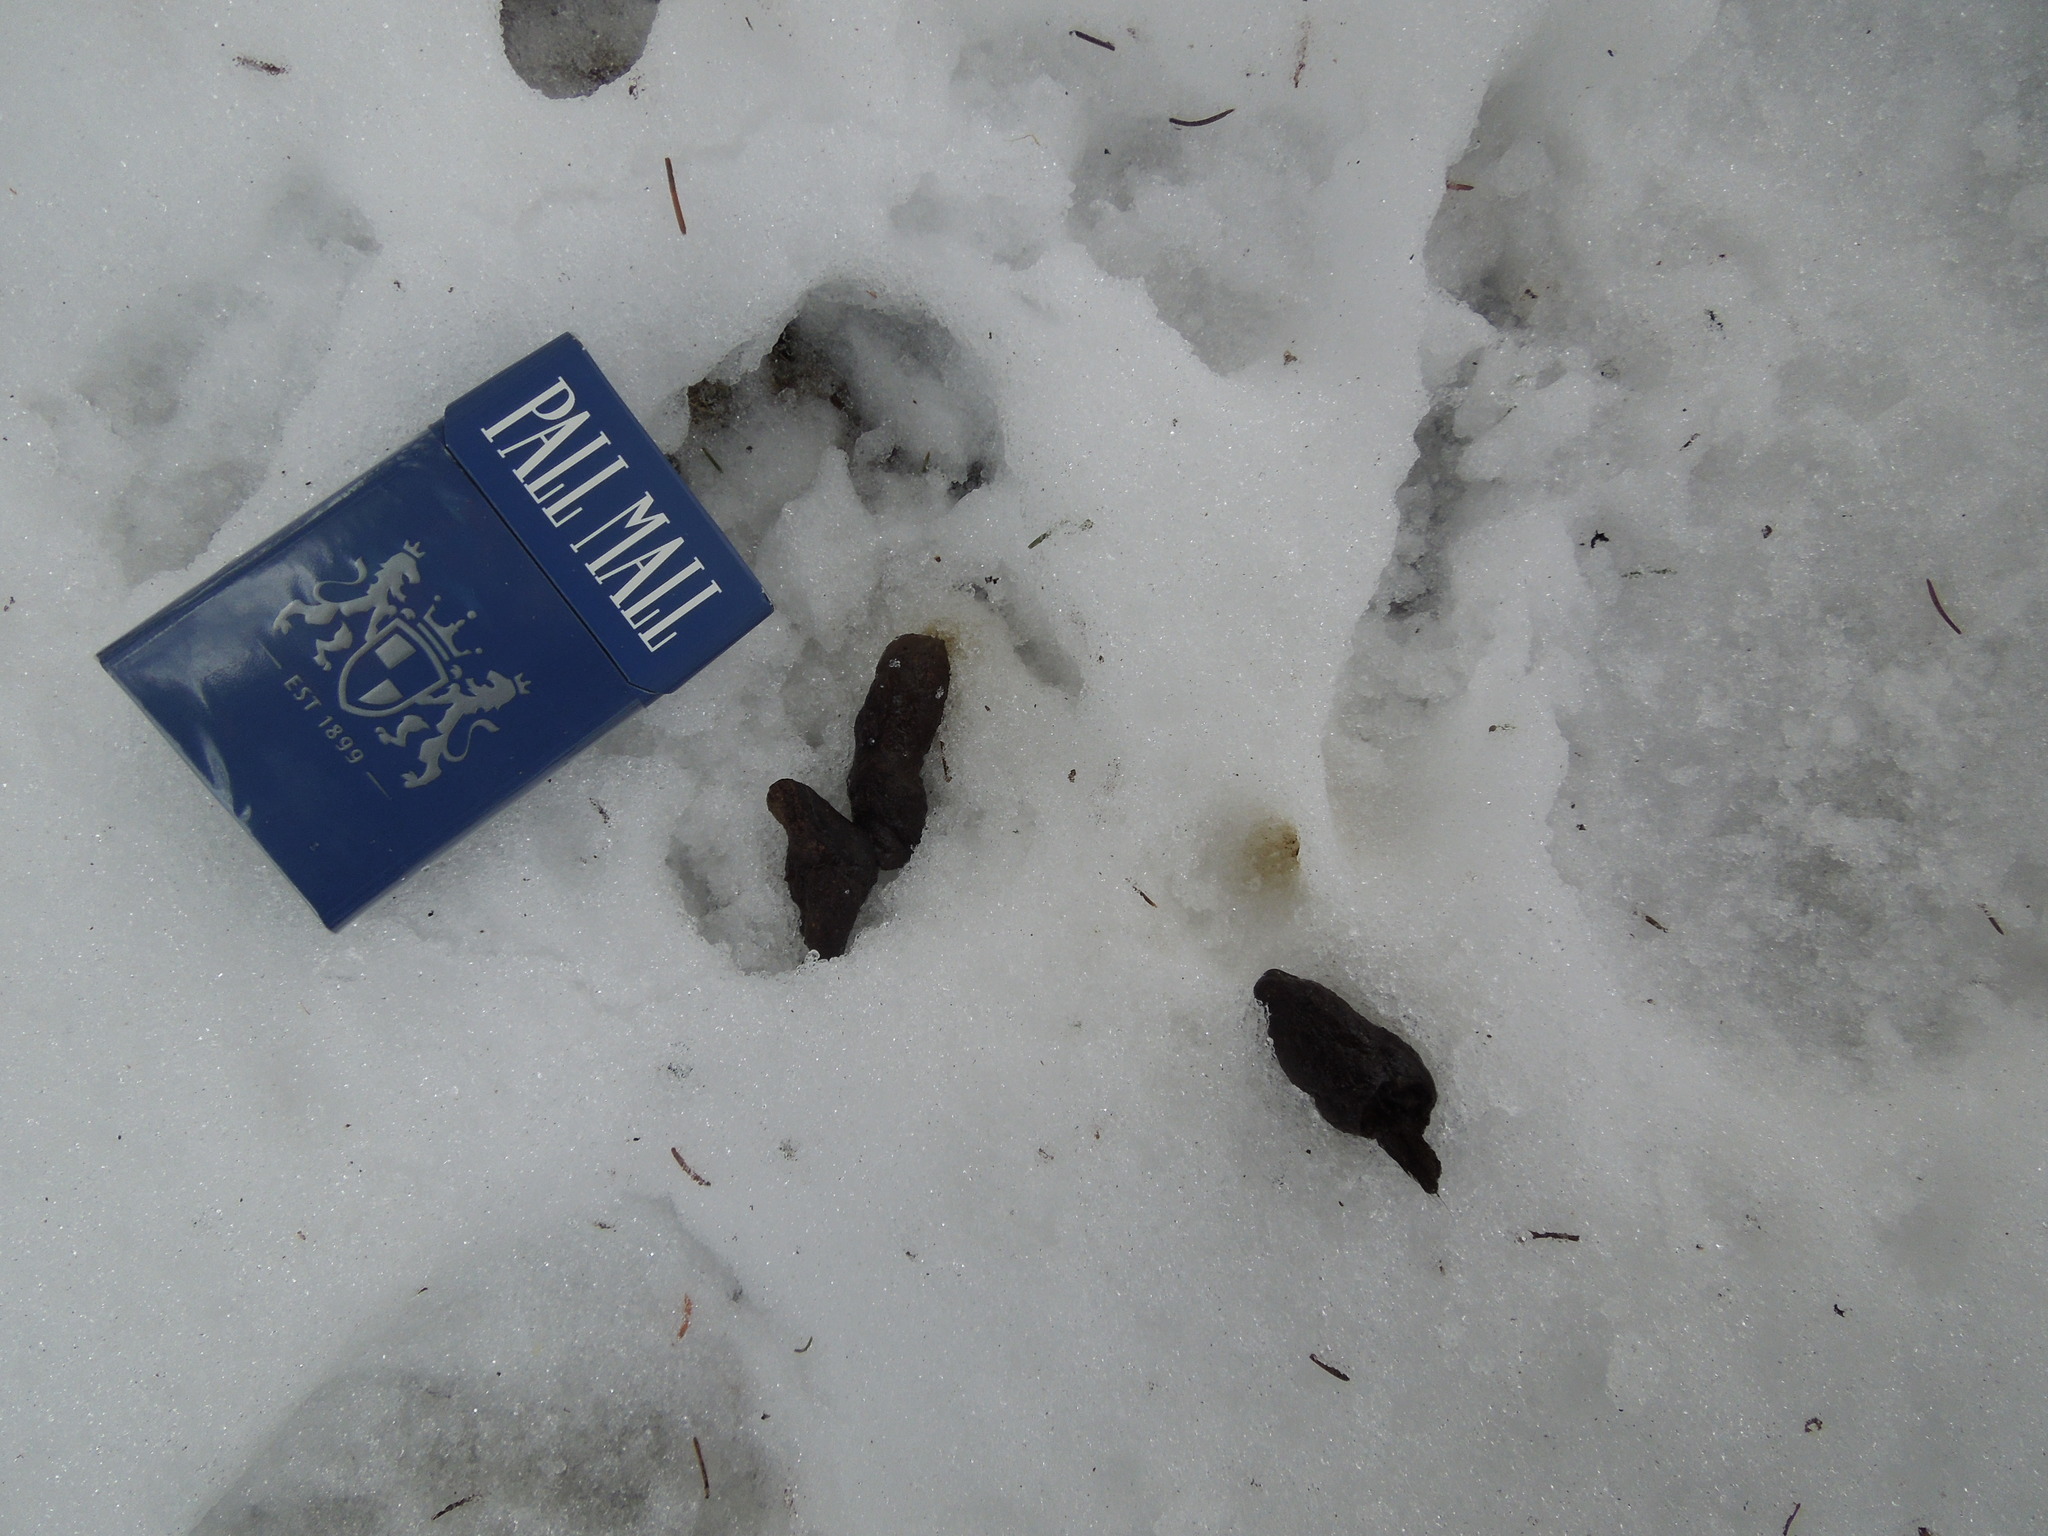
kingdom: Animalia
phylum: Chordata
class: Mammalia
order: Carnivora
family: Canidae
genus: Vulpes
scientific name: Vulpes vulpes
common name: Red fox
